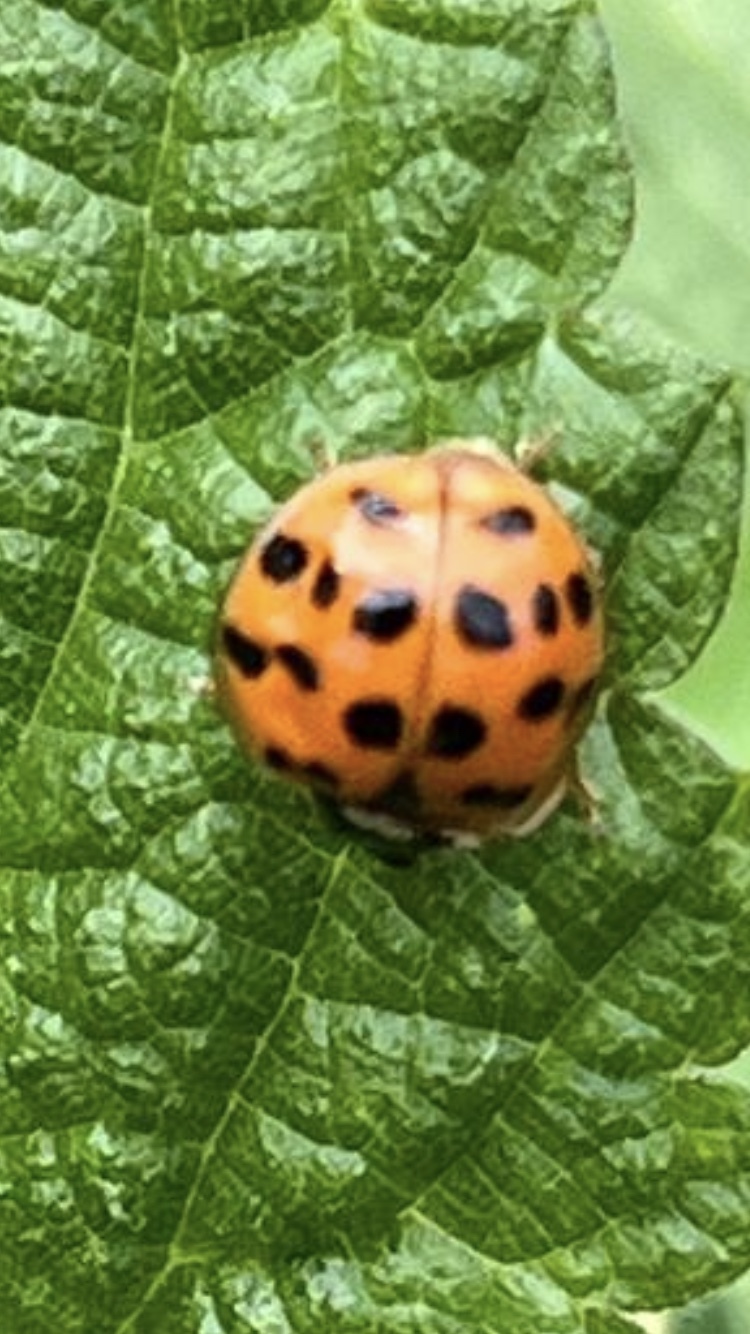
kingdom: Animalia
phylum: Arthropoda
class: Insecta
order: Coleoptera
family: Coccinellidae
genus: Harmonia
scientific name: Harmonia axyridis
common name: Harlequin ladybird
